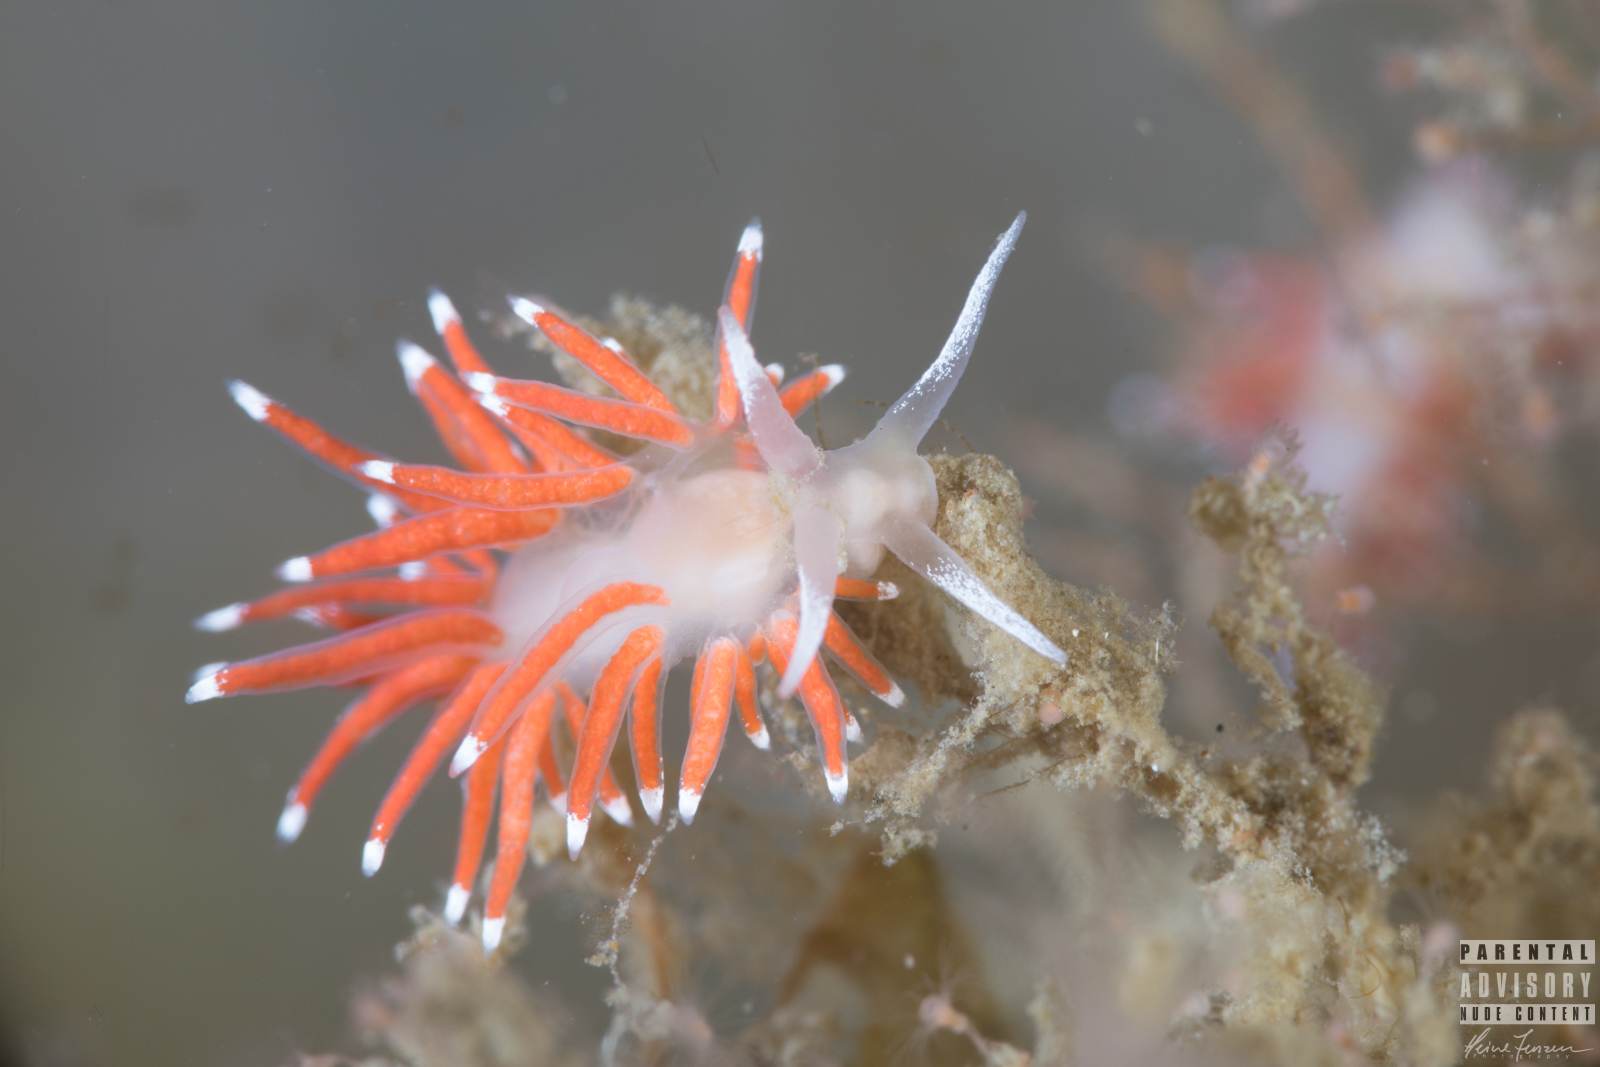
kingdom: Animalia
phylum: Mollusca
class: Gastropoda
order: Nudibranchia
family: Coryphellidae
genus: Coryphella
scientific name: Coryphella gracilis
